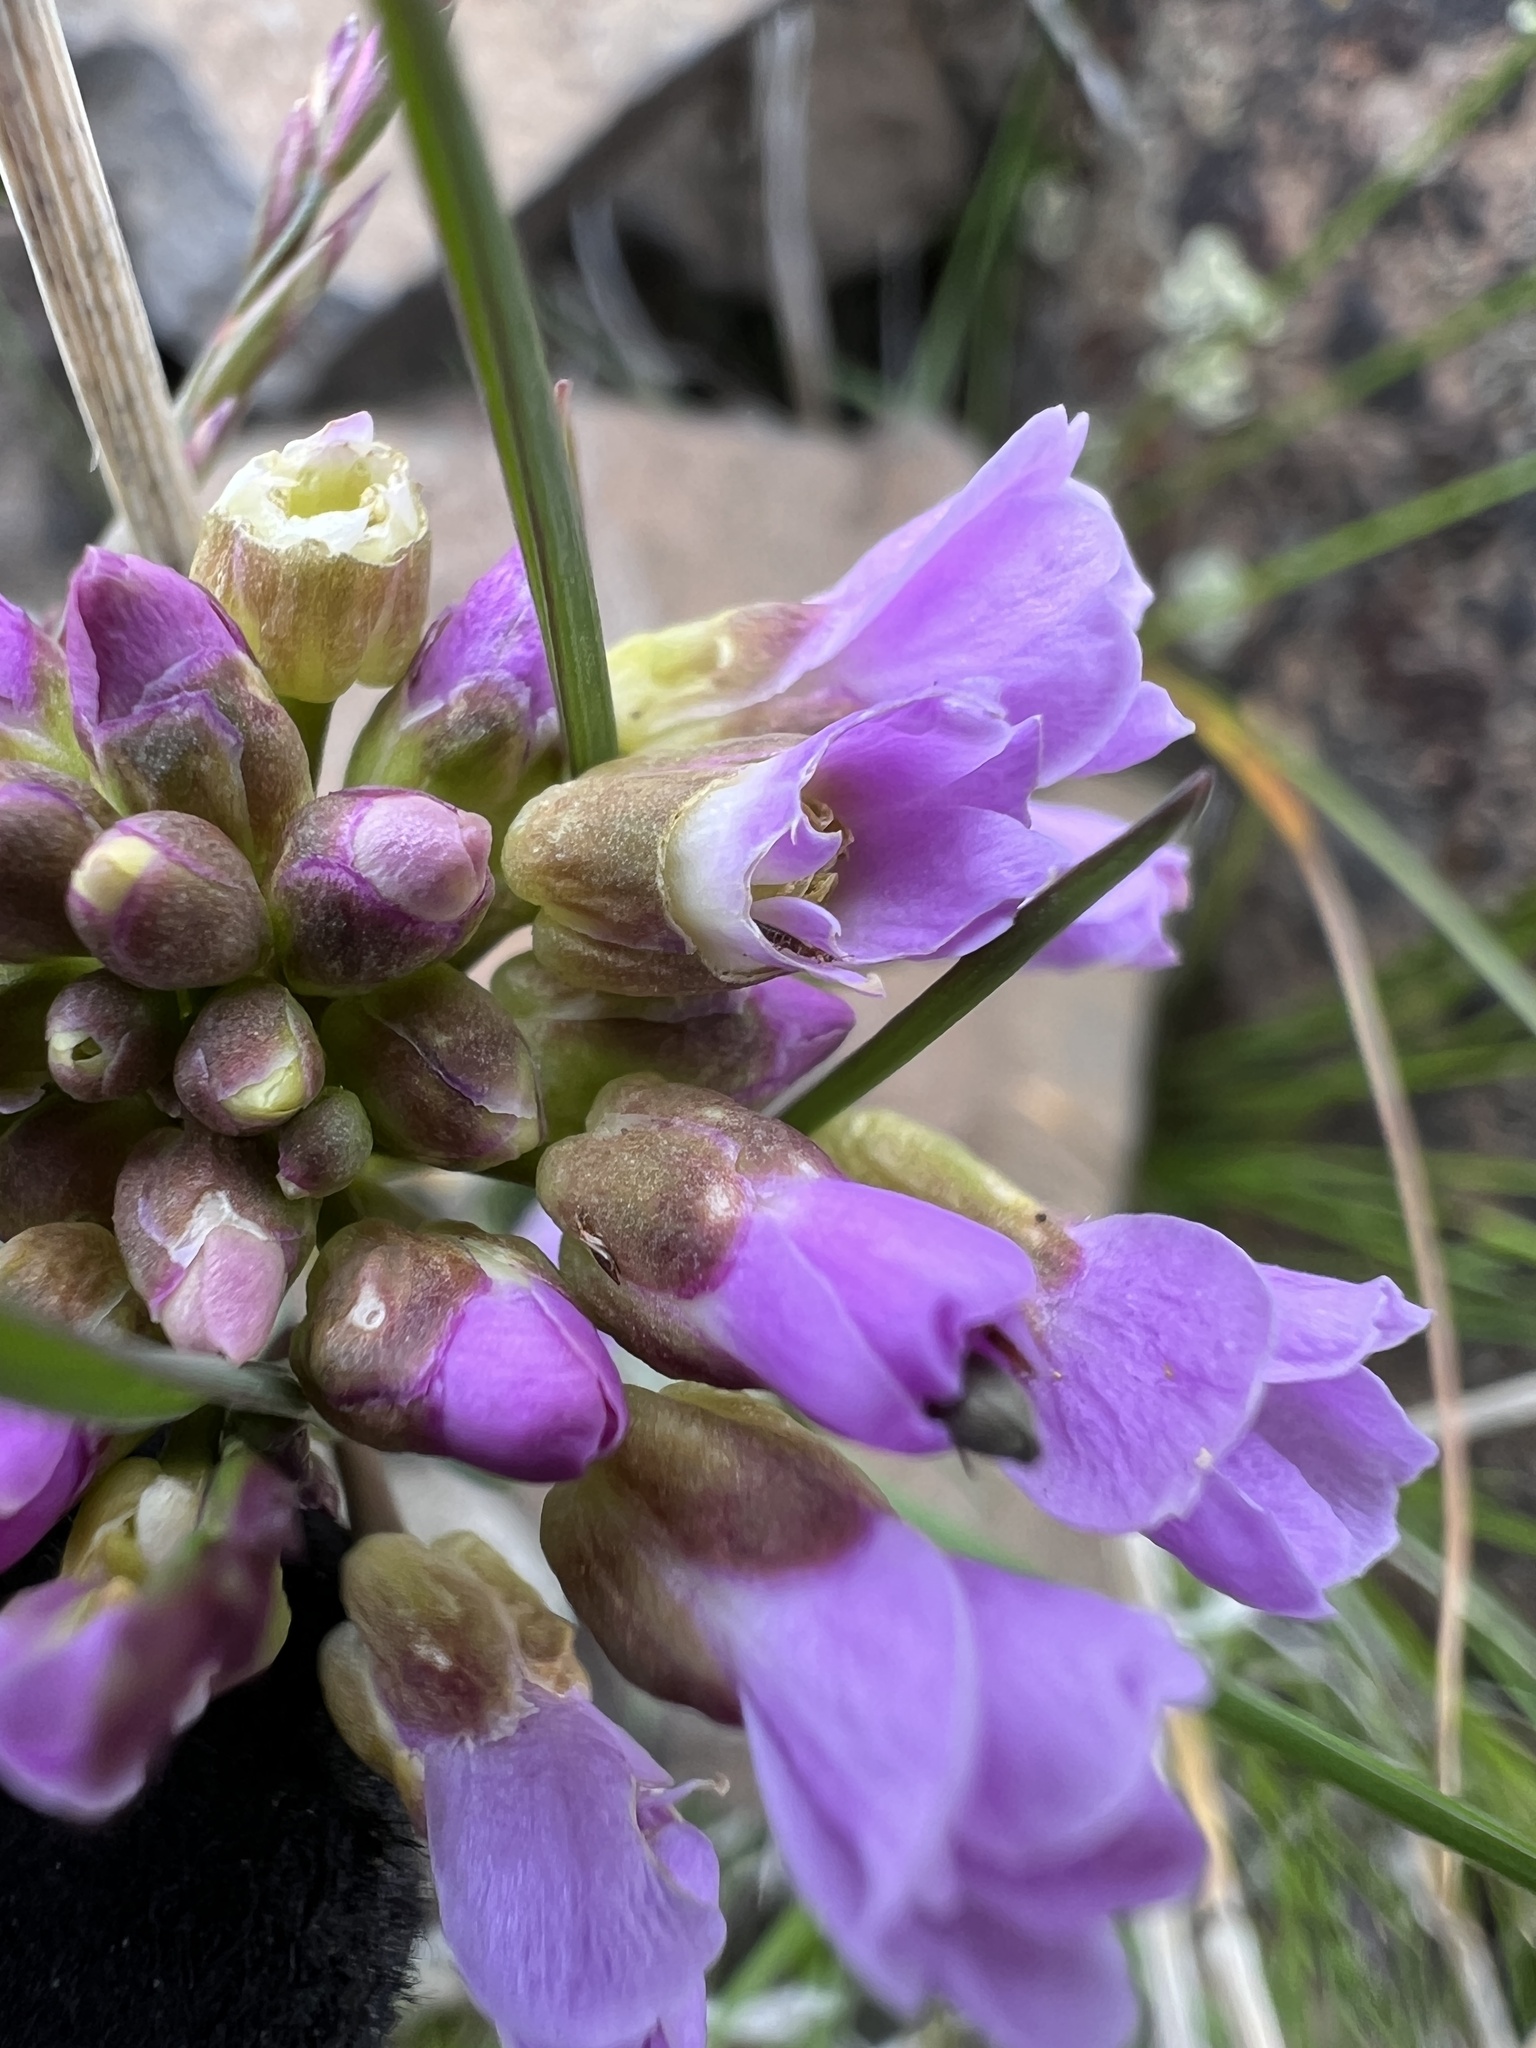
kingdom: Plantae
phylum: Tracheophyta
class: Magnoliopsida
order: Brassicales
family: Brassicaceae
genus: Phoenicaulis
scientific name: Phoenicaulis cheiranthoides
